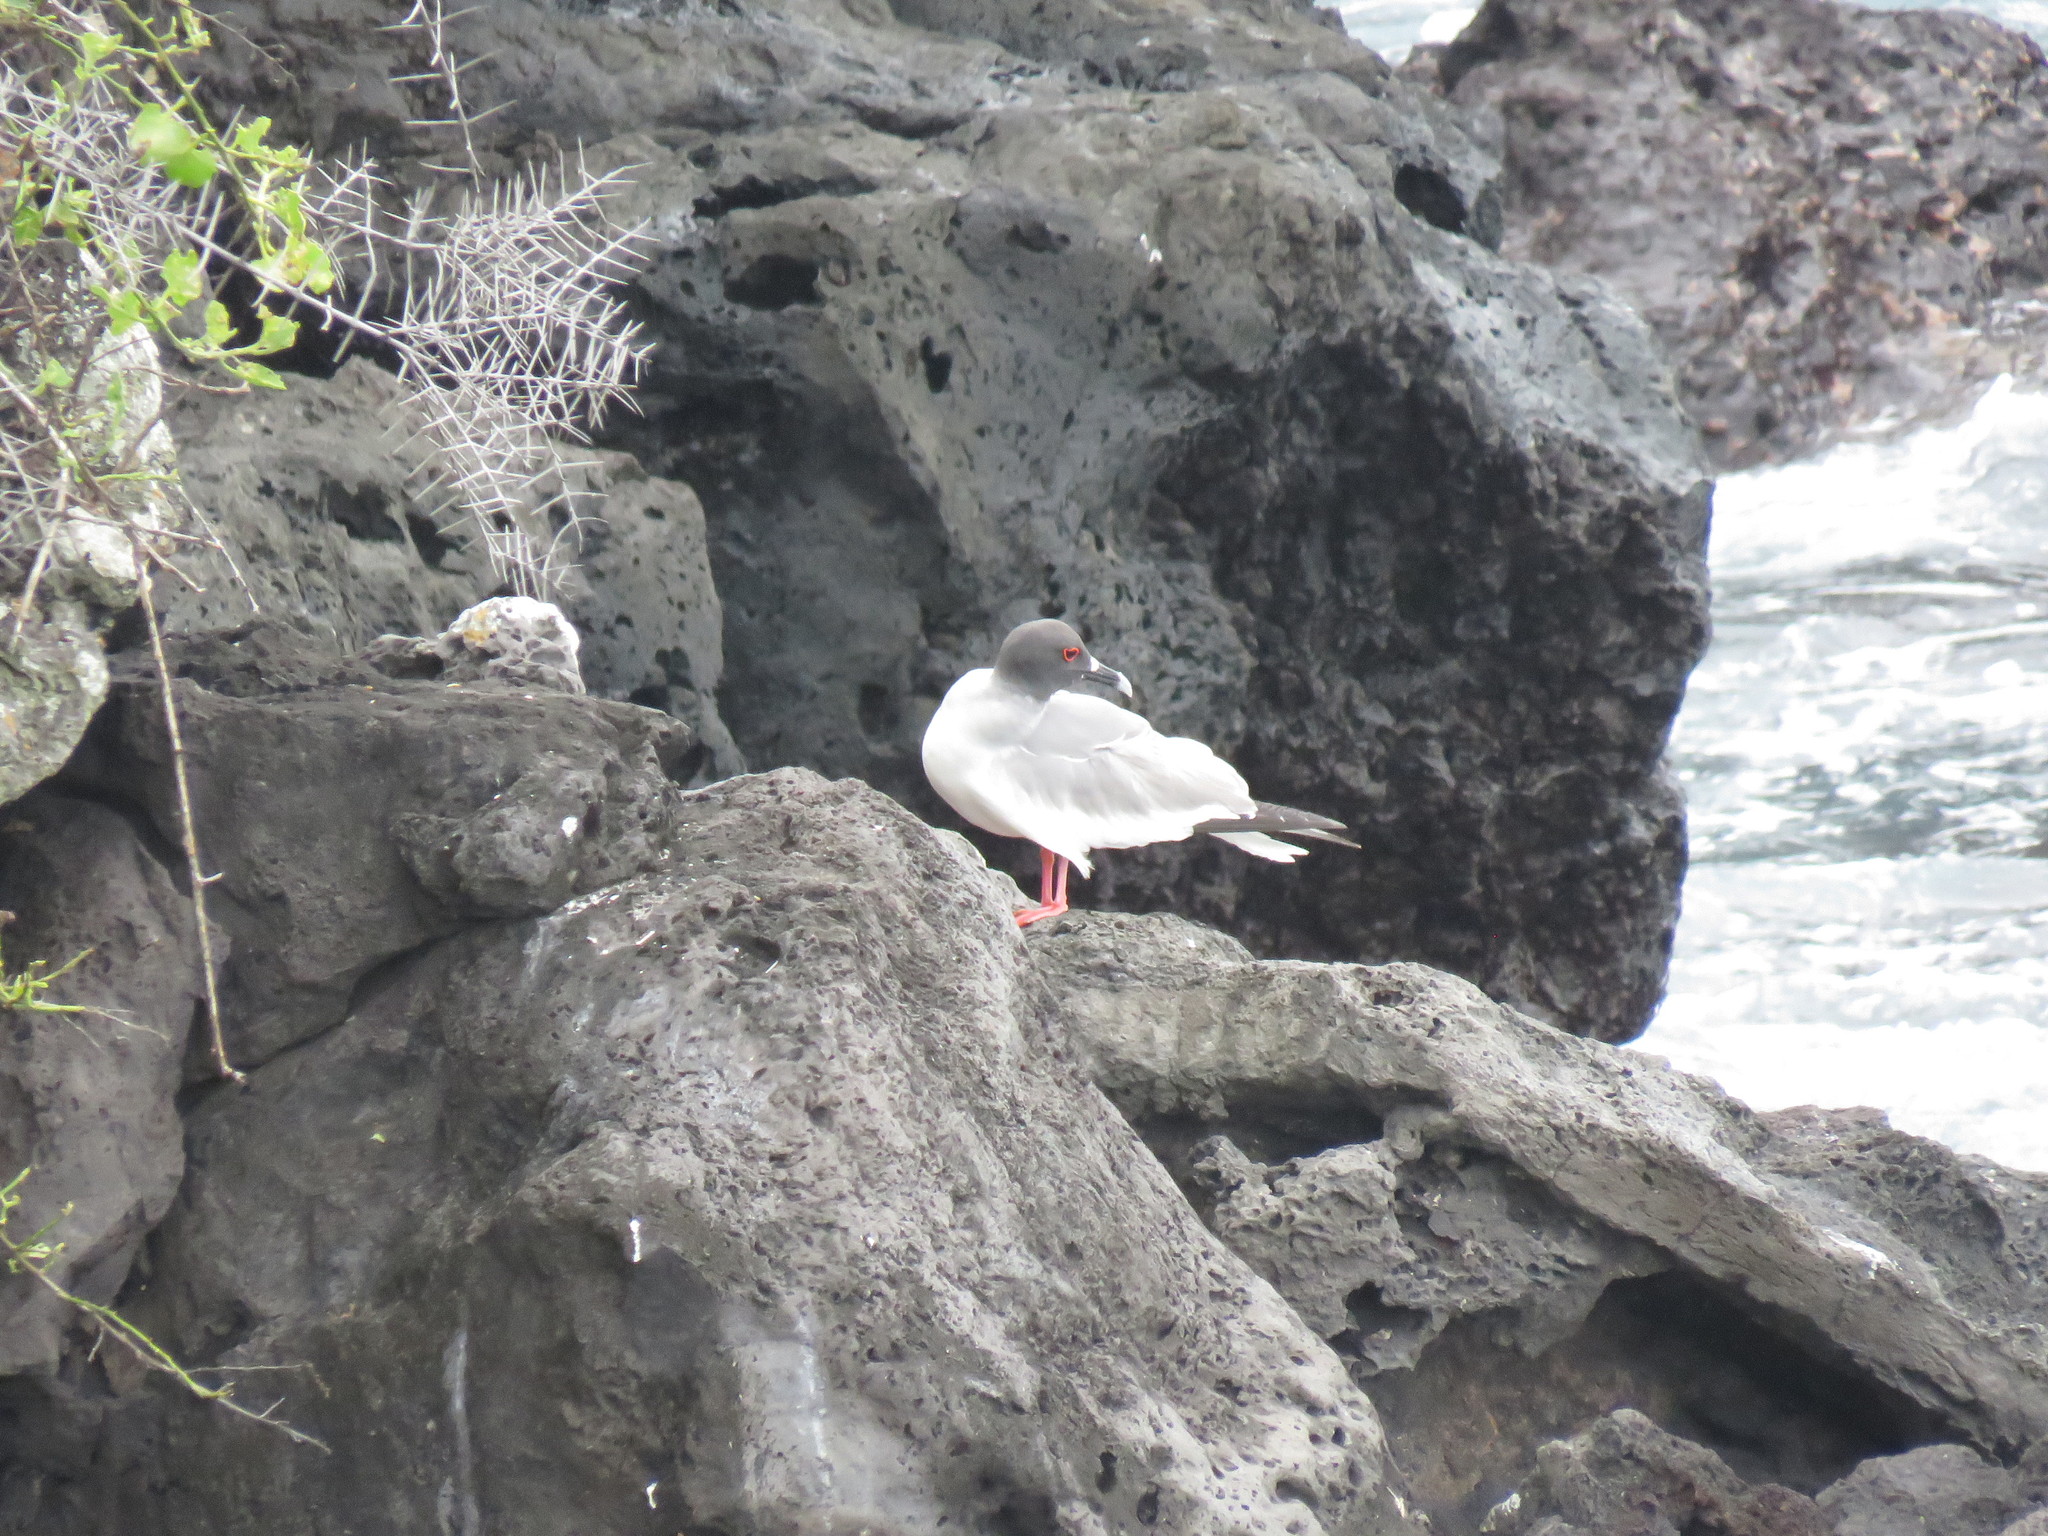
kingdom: Animalia
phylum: Chordata
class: Aves
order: Charadriiformes
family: Laridae
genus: Creagrus
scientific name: Creagrus furcatus
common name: Swallow-tailed gull
